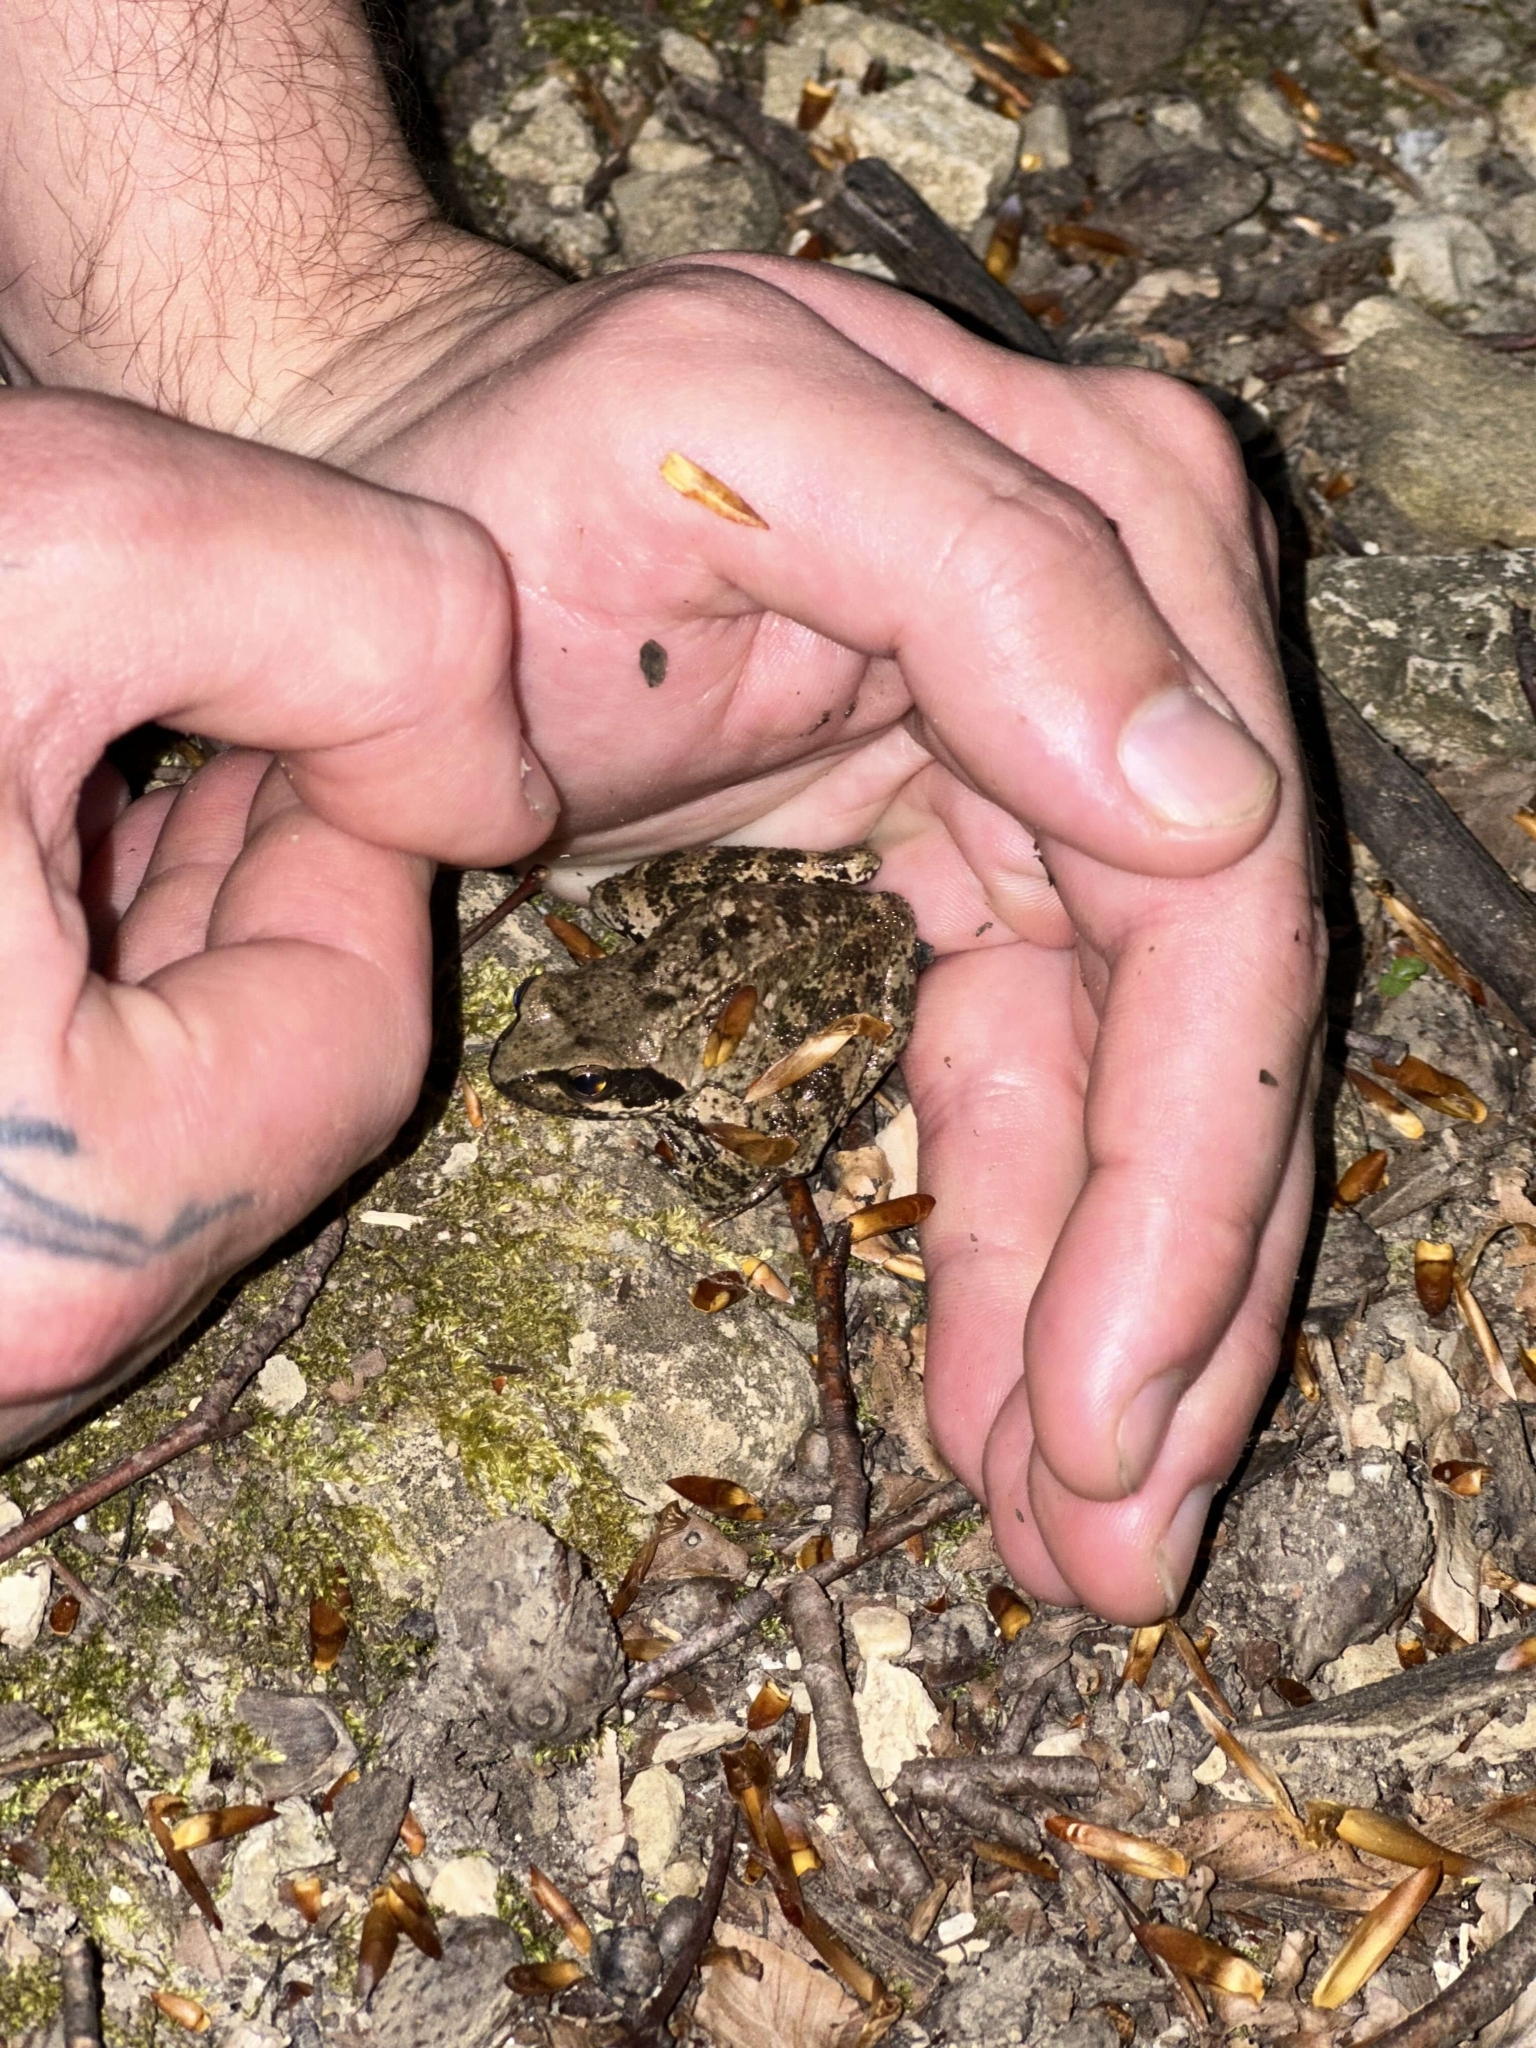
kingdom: Animalia
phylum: Chordata
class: Amphibia
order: Anura
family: Ranidae
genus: Rana
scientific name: Rana italica
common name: Italian stream frog
